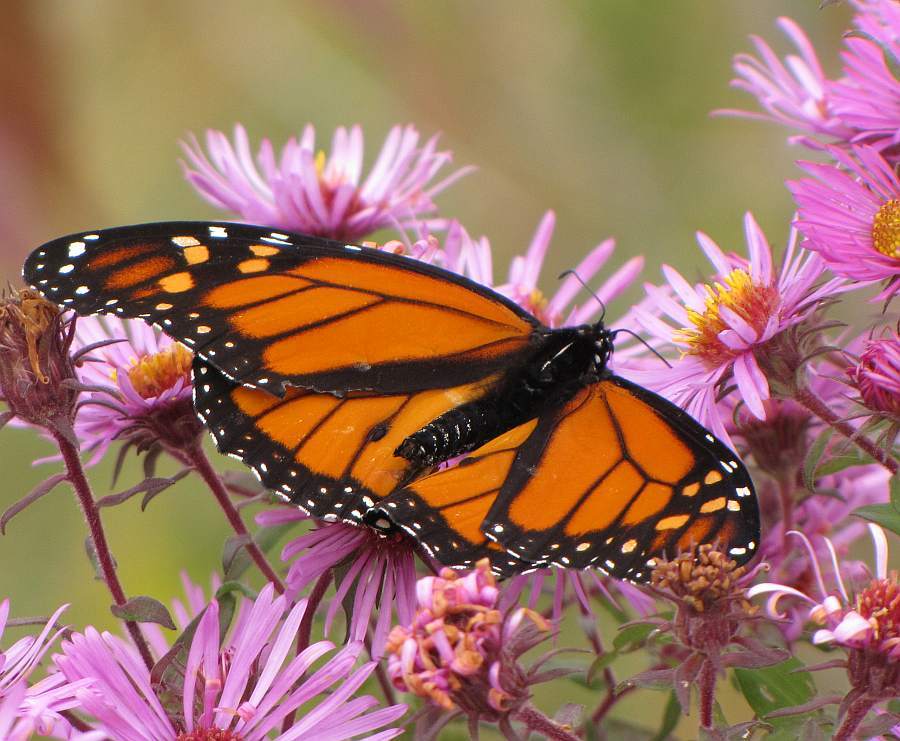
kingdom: Animalia
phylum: Arthropoda
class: Insecta
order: Lepidoptera
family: Nymphalidae
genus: Danaus
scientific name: Danaus plexippus
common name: Monarch
